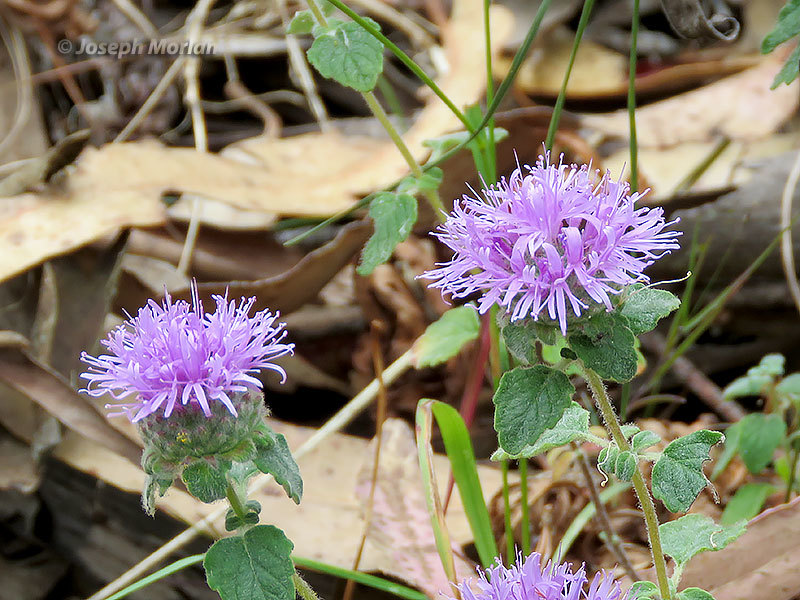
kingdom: Plantae
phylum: Tracheophyta
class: Magnoliopsida
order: Lamiales
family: Lamiaceae
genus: Monardella
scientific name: Monardella odoratissima
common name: Pacific monardella
